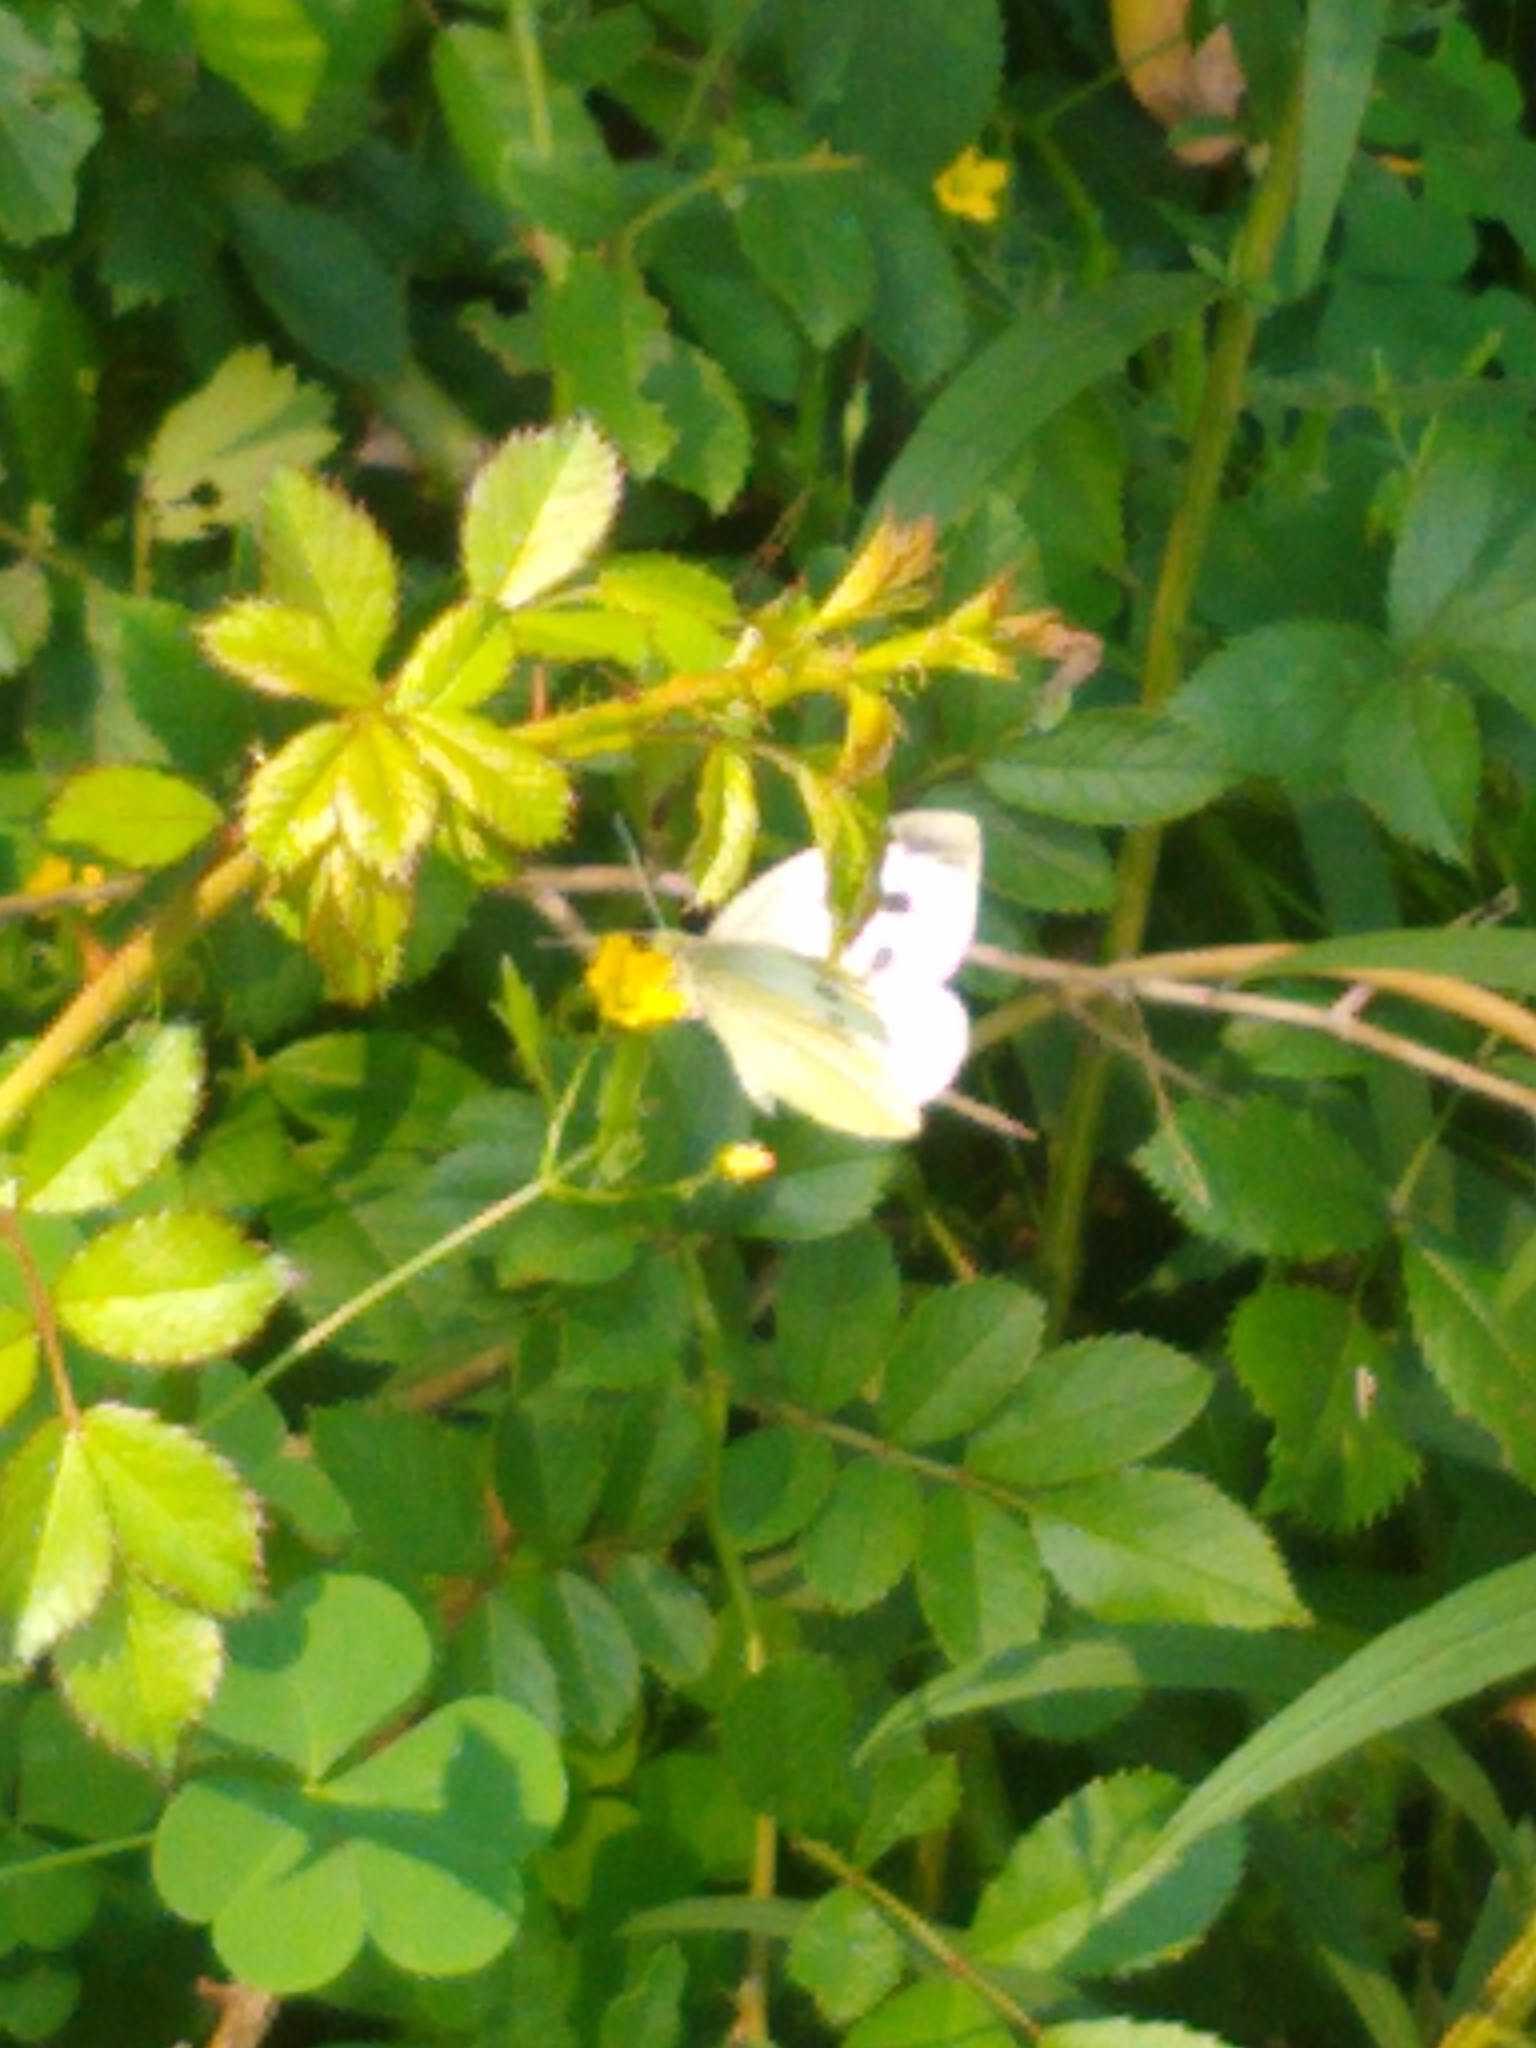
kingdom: Animalia
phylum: Arthropoda
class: Insecta
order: Lepidoptera
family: Pieridae
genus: Pieris
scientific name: Pieris rapae
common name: Small white
